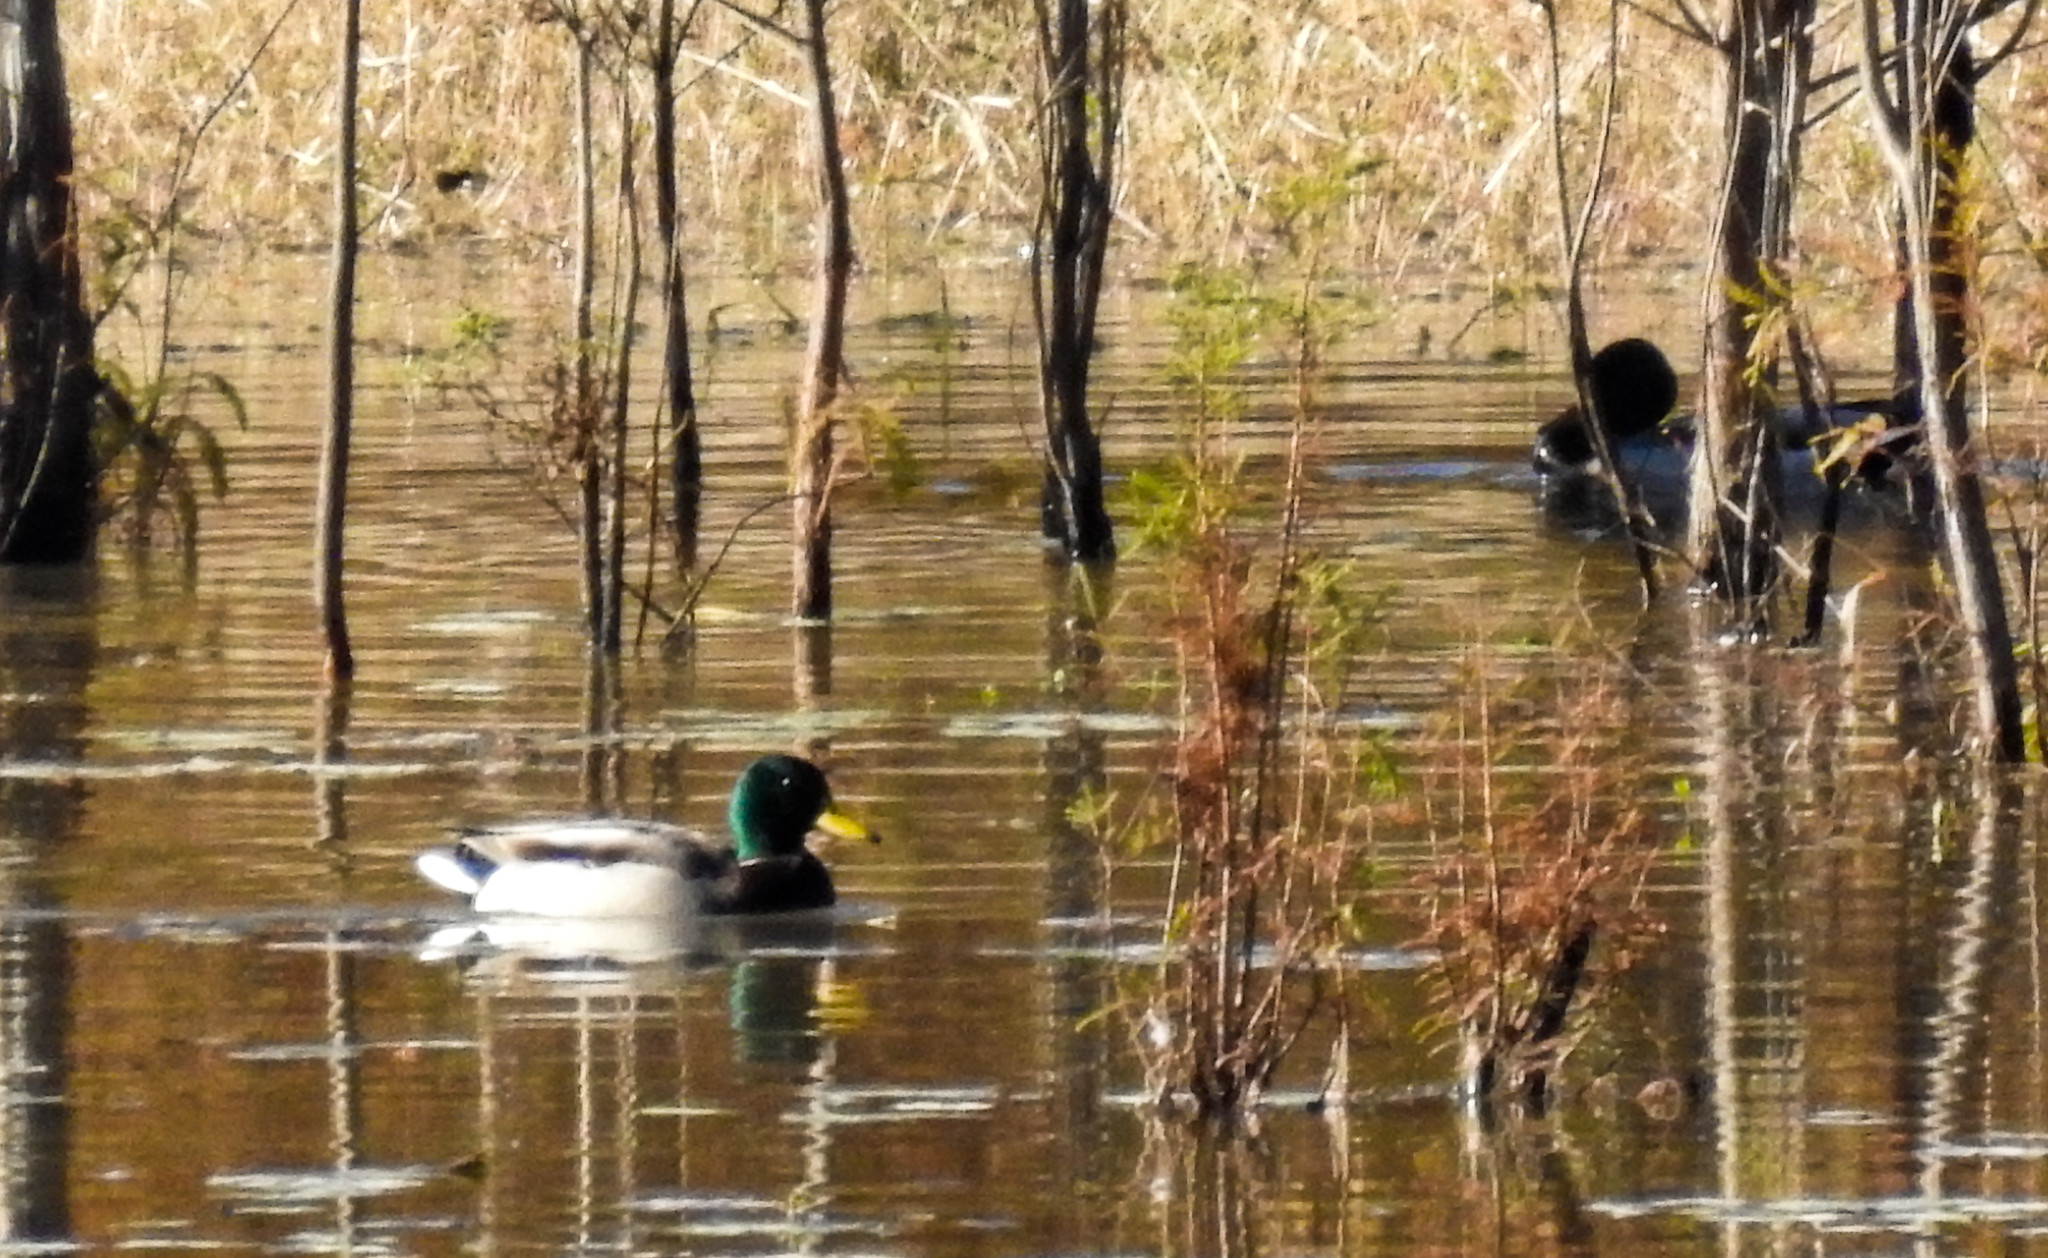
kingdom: Animalia
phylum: Chordata
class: Aves
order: Anseriformes
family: Anatidae
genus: Anas
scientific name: Anas platyrhynchos
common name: Mallard
